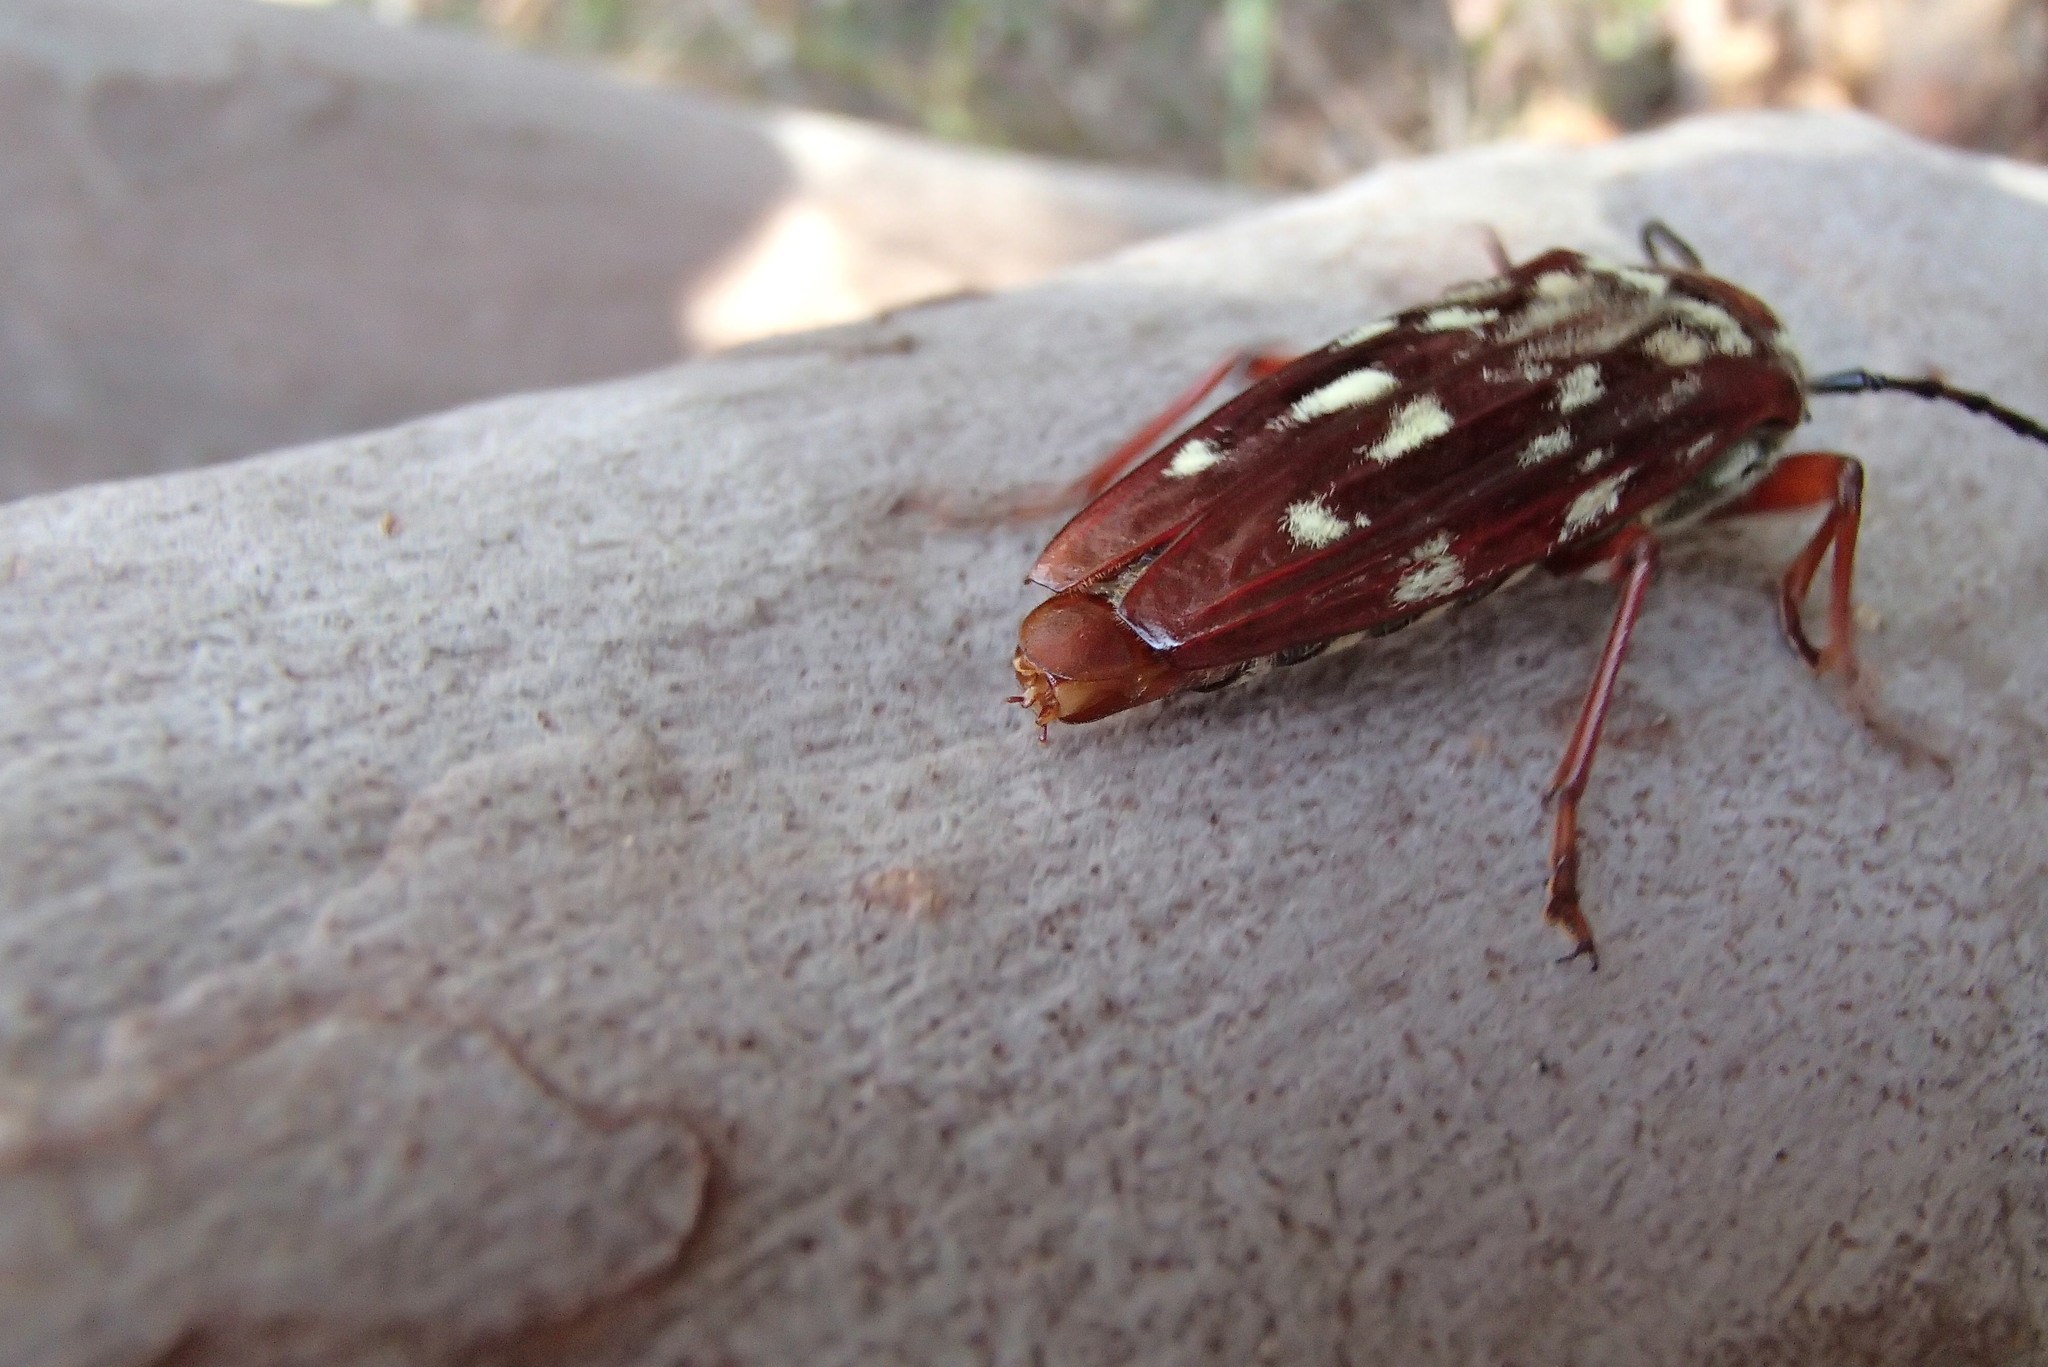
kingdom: Animalia
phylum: Arthropoda
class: Insecta
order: Coleoptera
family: Cerambycidae
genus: Tragocerus
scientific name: Tragocerus lepidopterus
